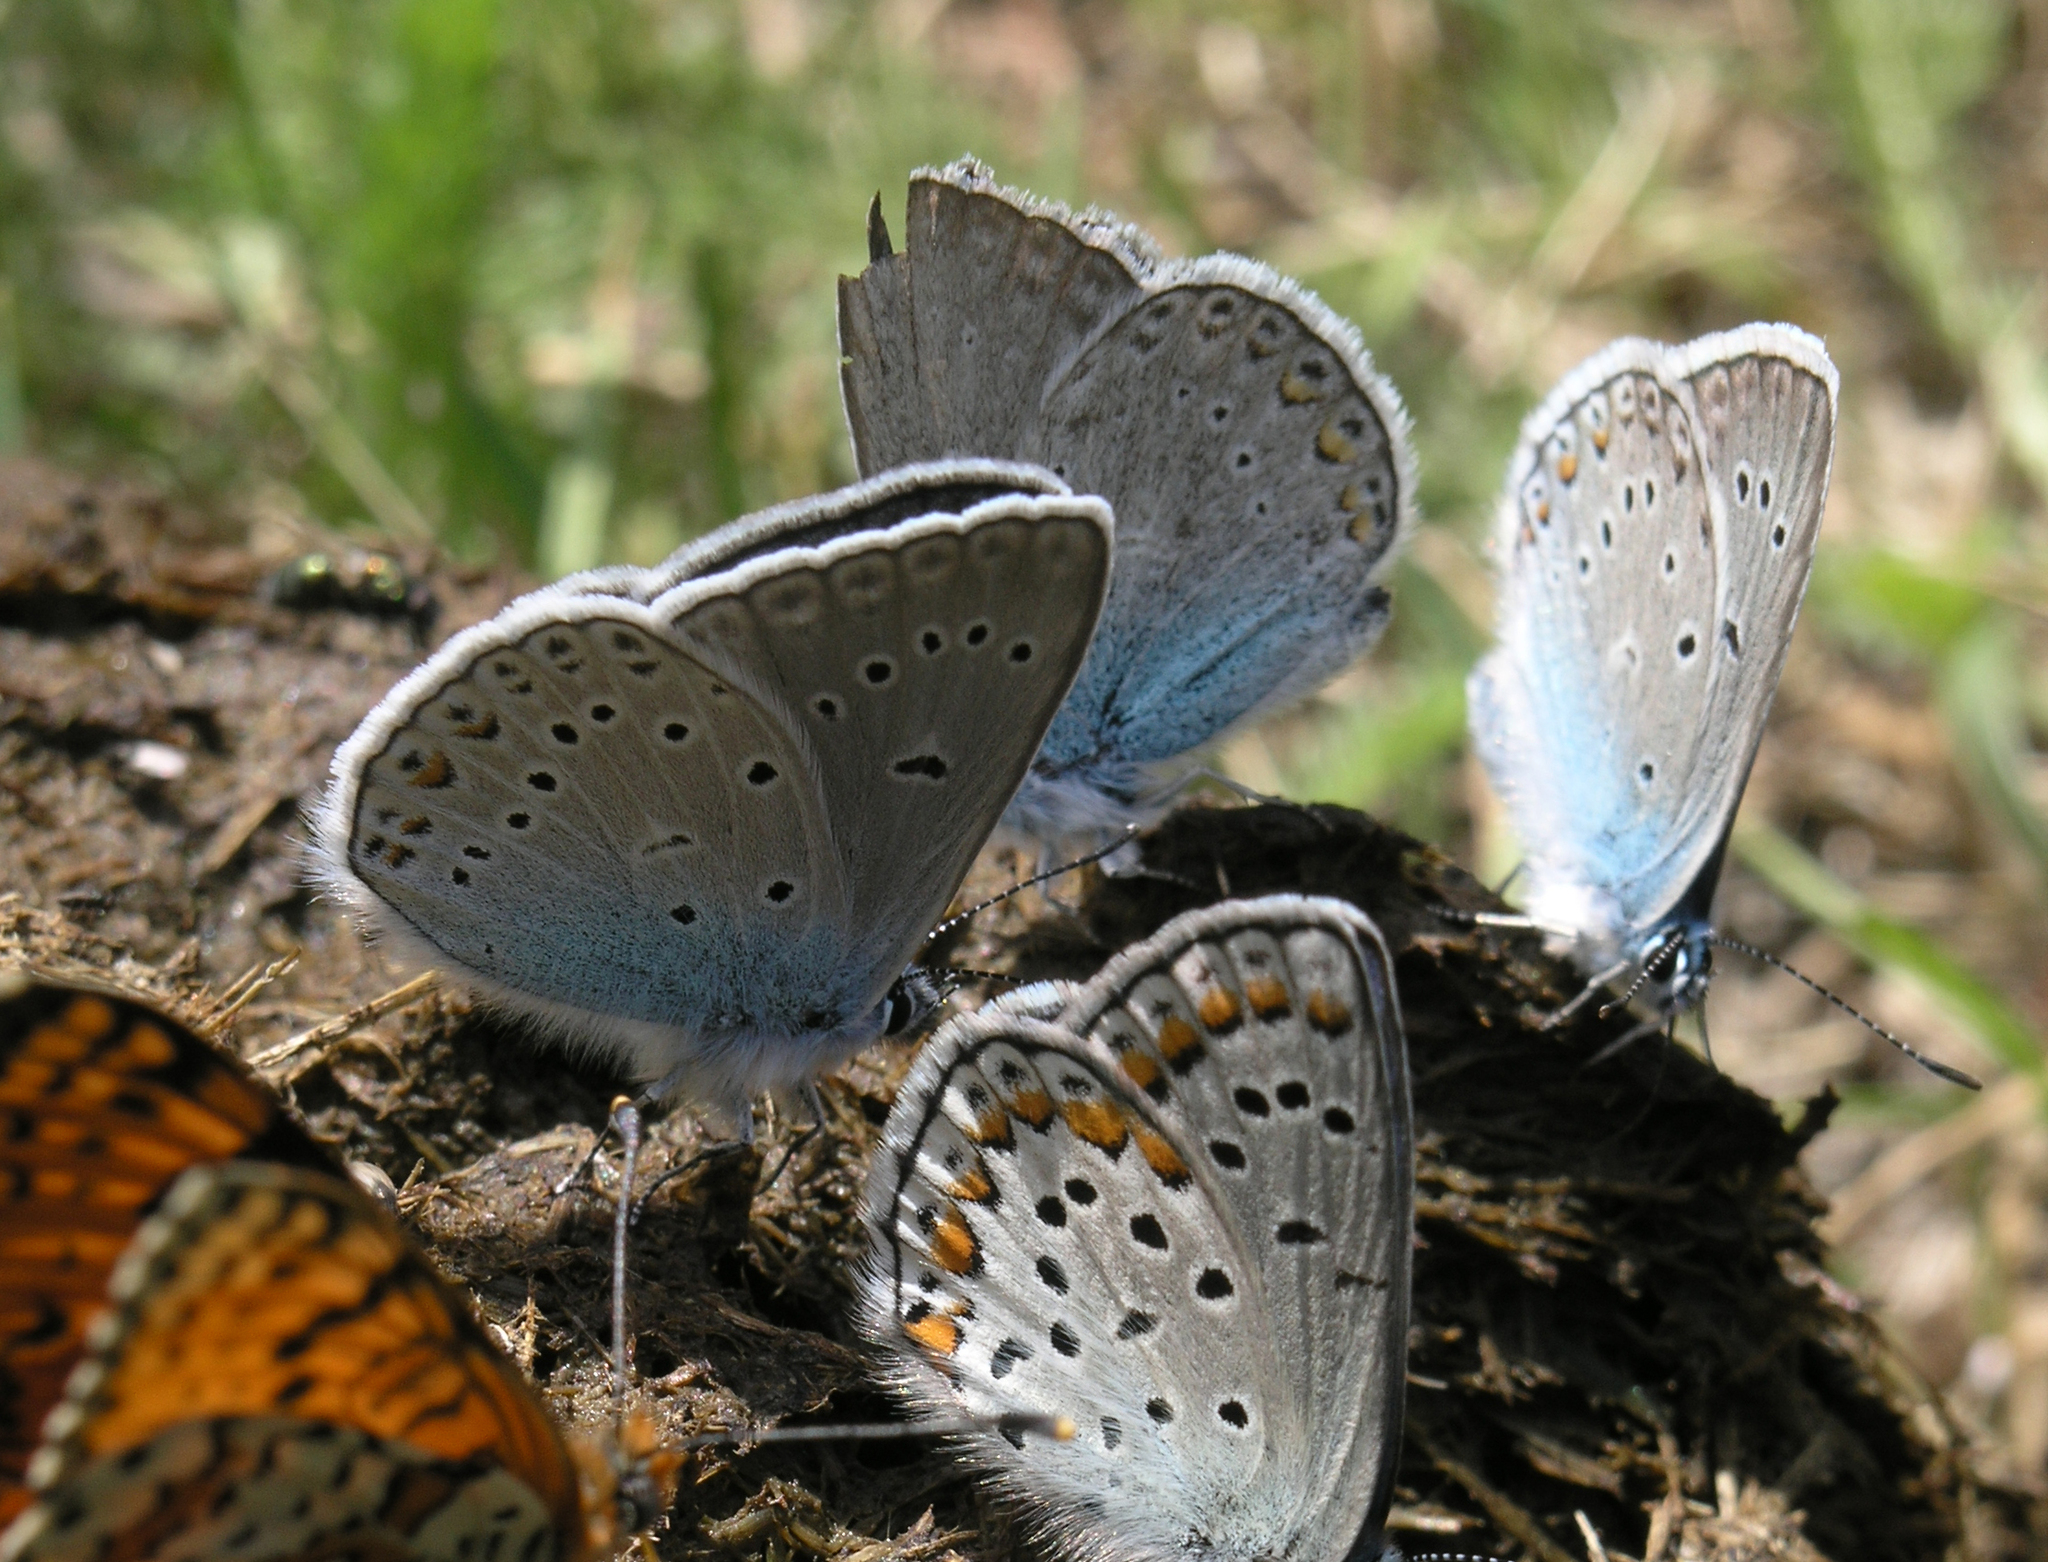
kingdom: Animalia
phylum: Arthropoda
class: Insecta
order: Lepidoptera
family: Lycaenidae
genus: Plebejus
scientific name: Plebejus amanda
